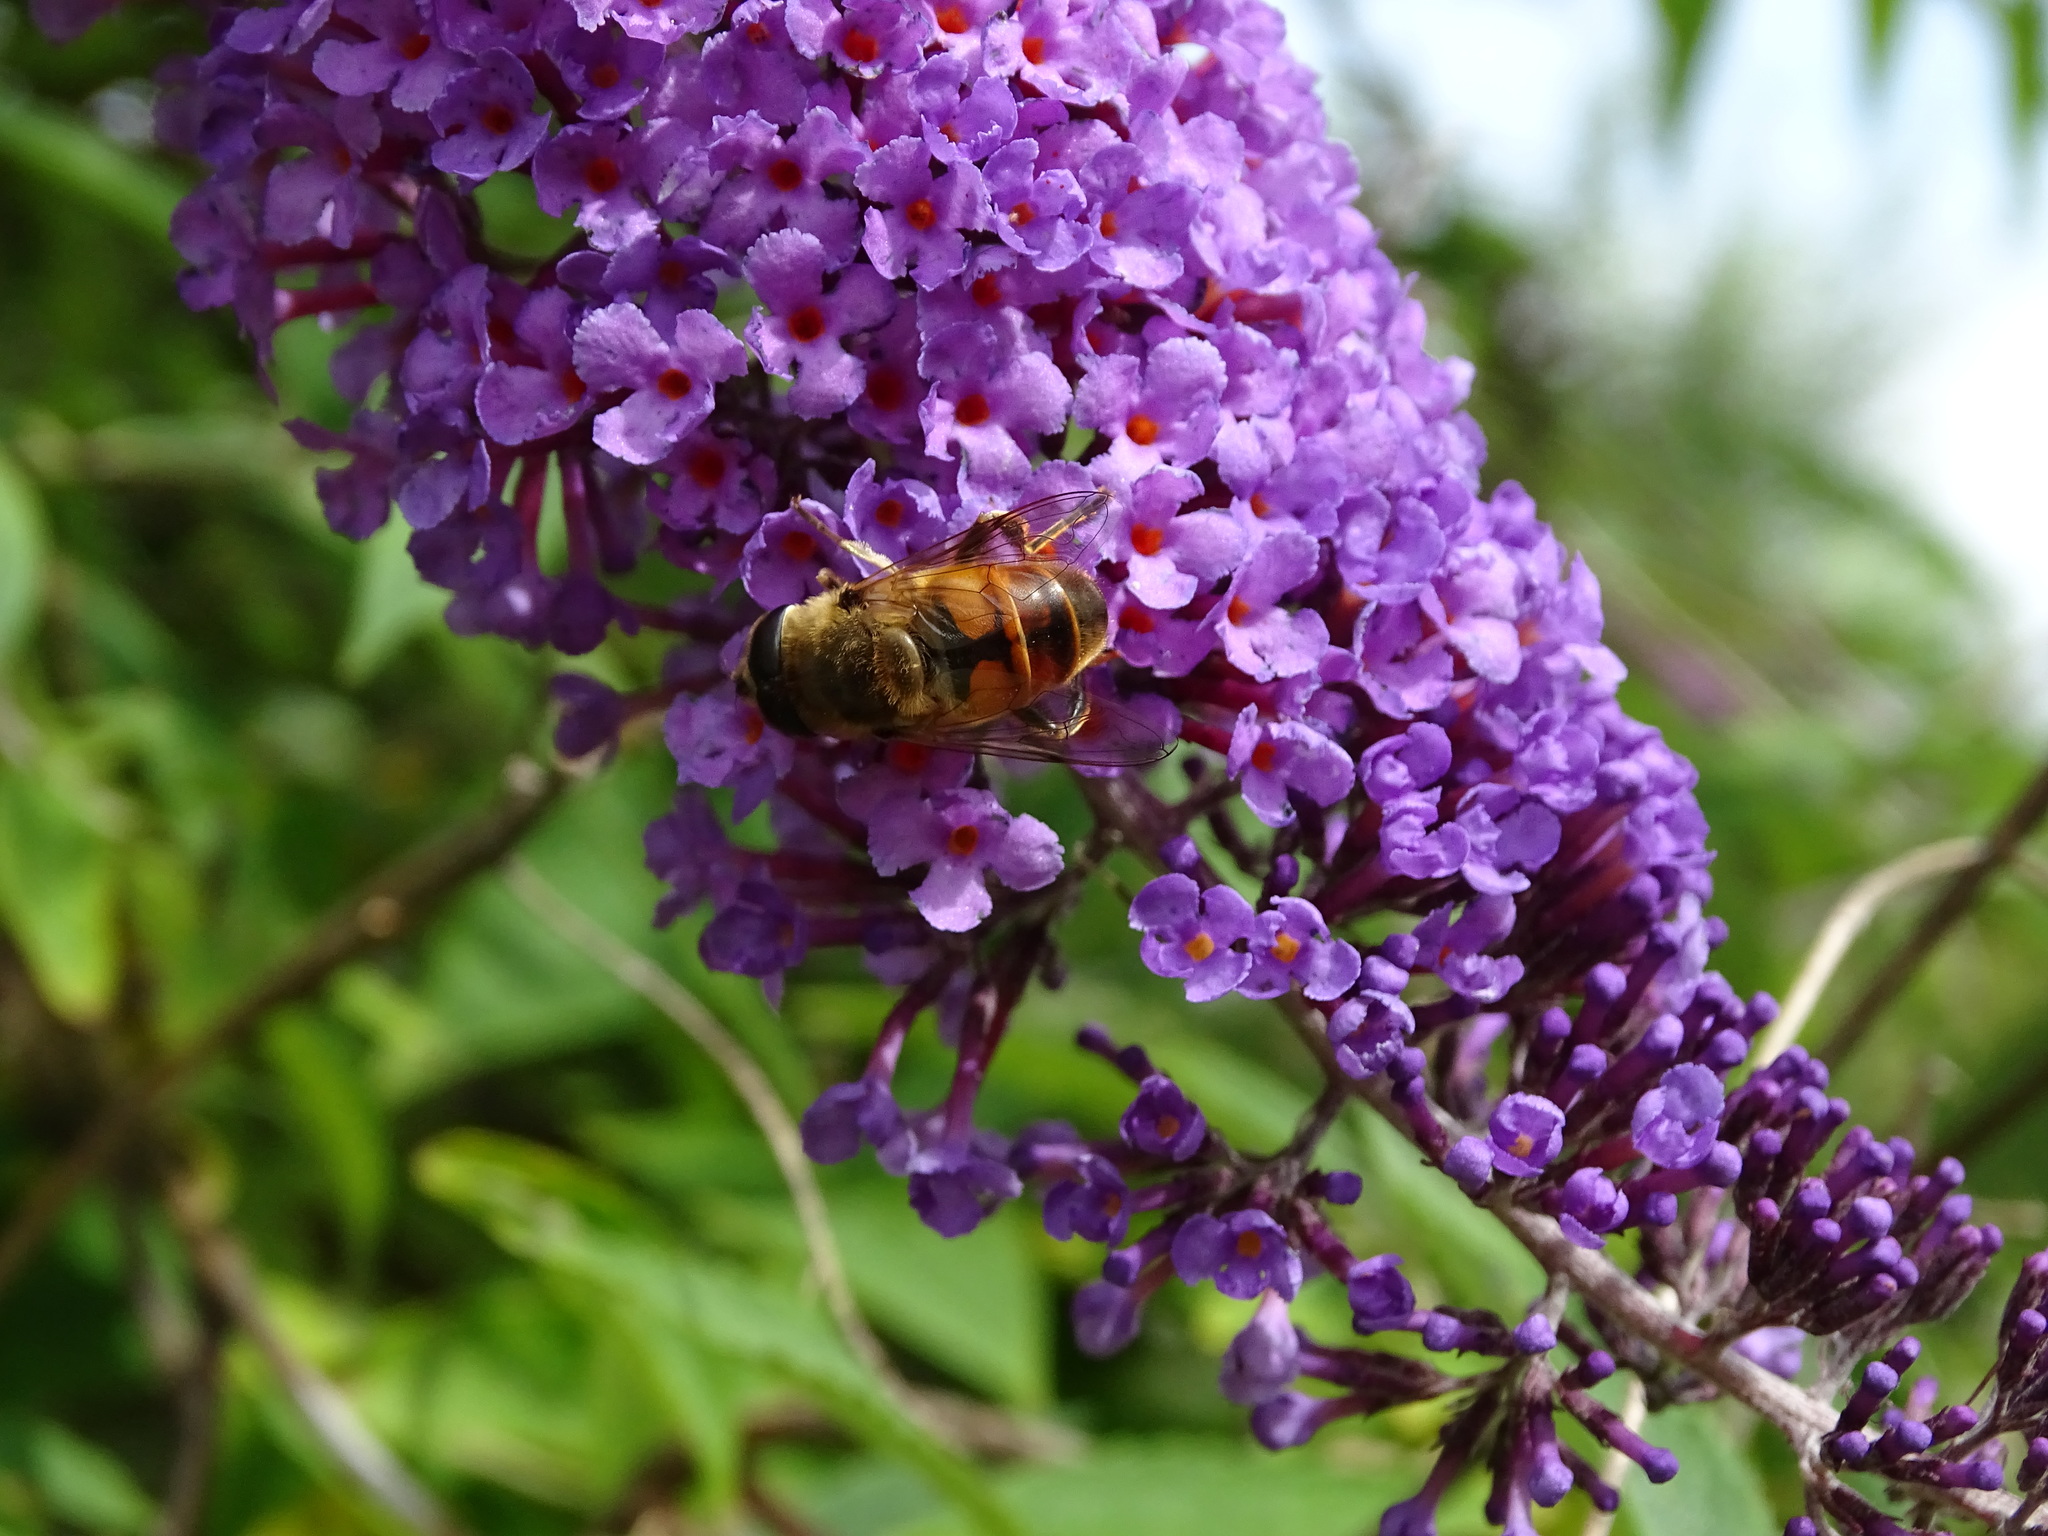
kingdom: Animalia
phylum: Arthropoda
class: Insecta
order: Diptera
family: Syrphidae
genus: Eristalis
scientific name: Eristalis tenax
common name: Drone fly
